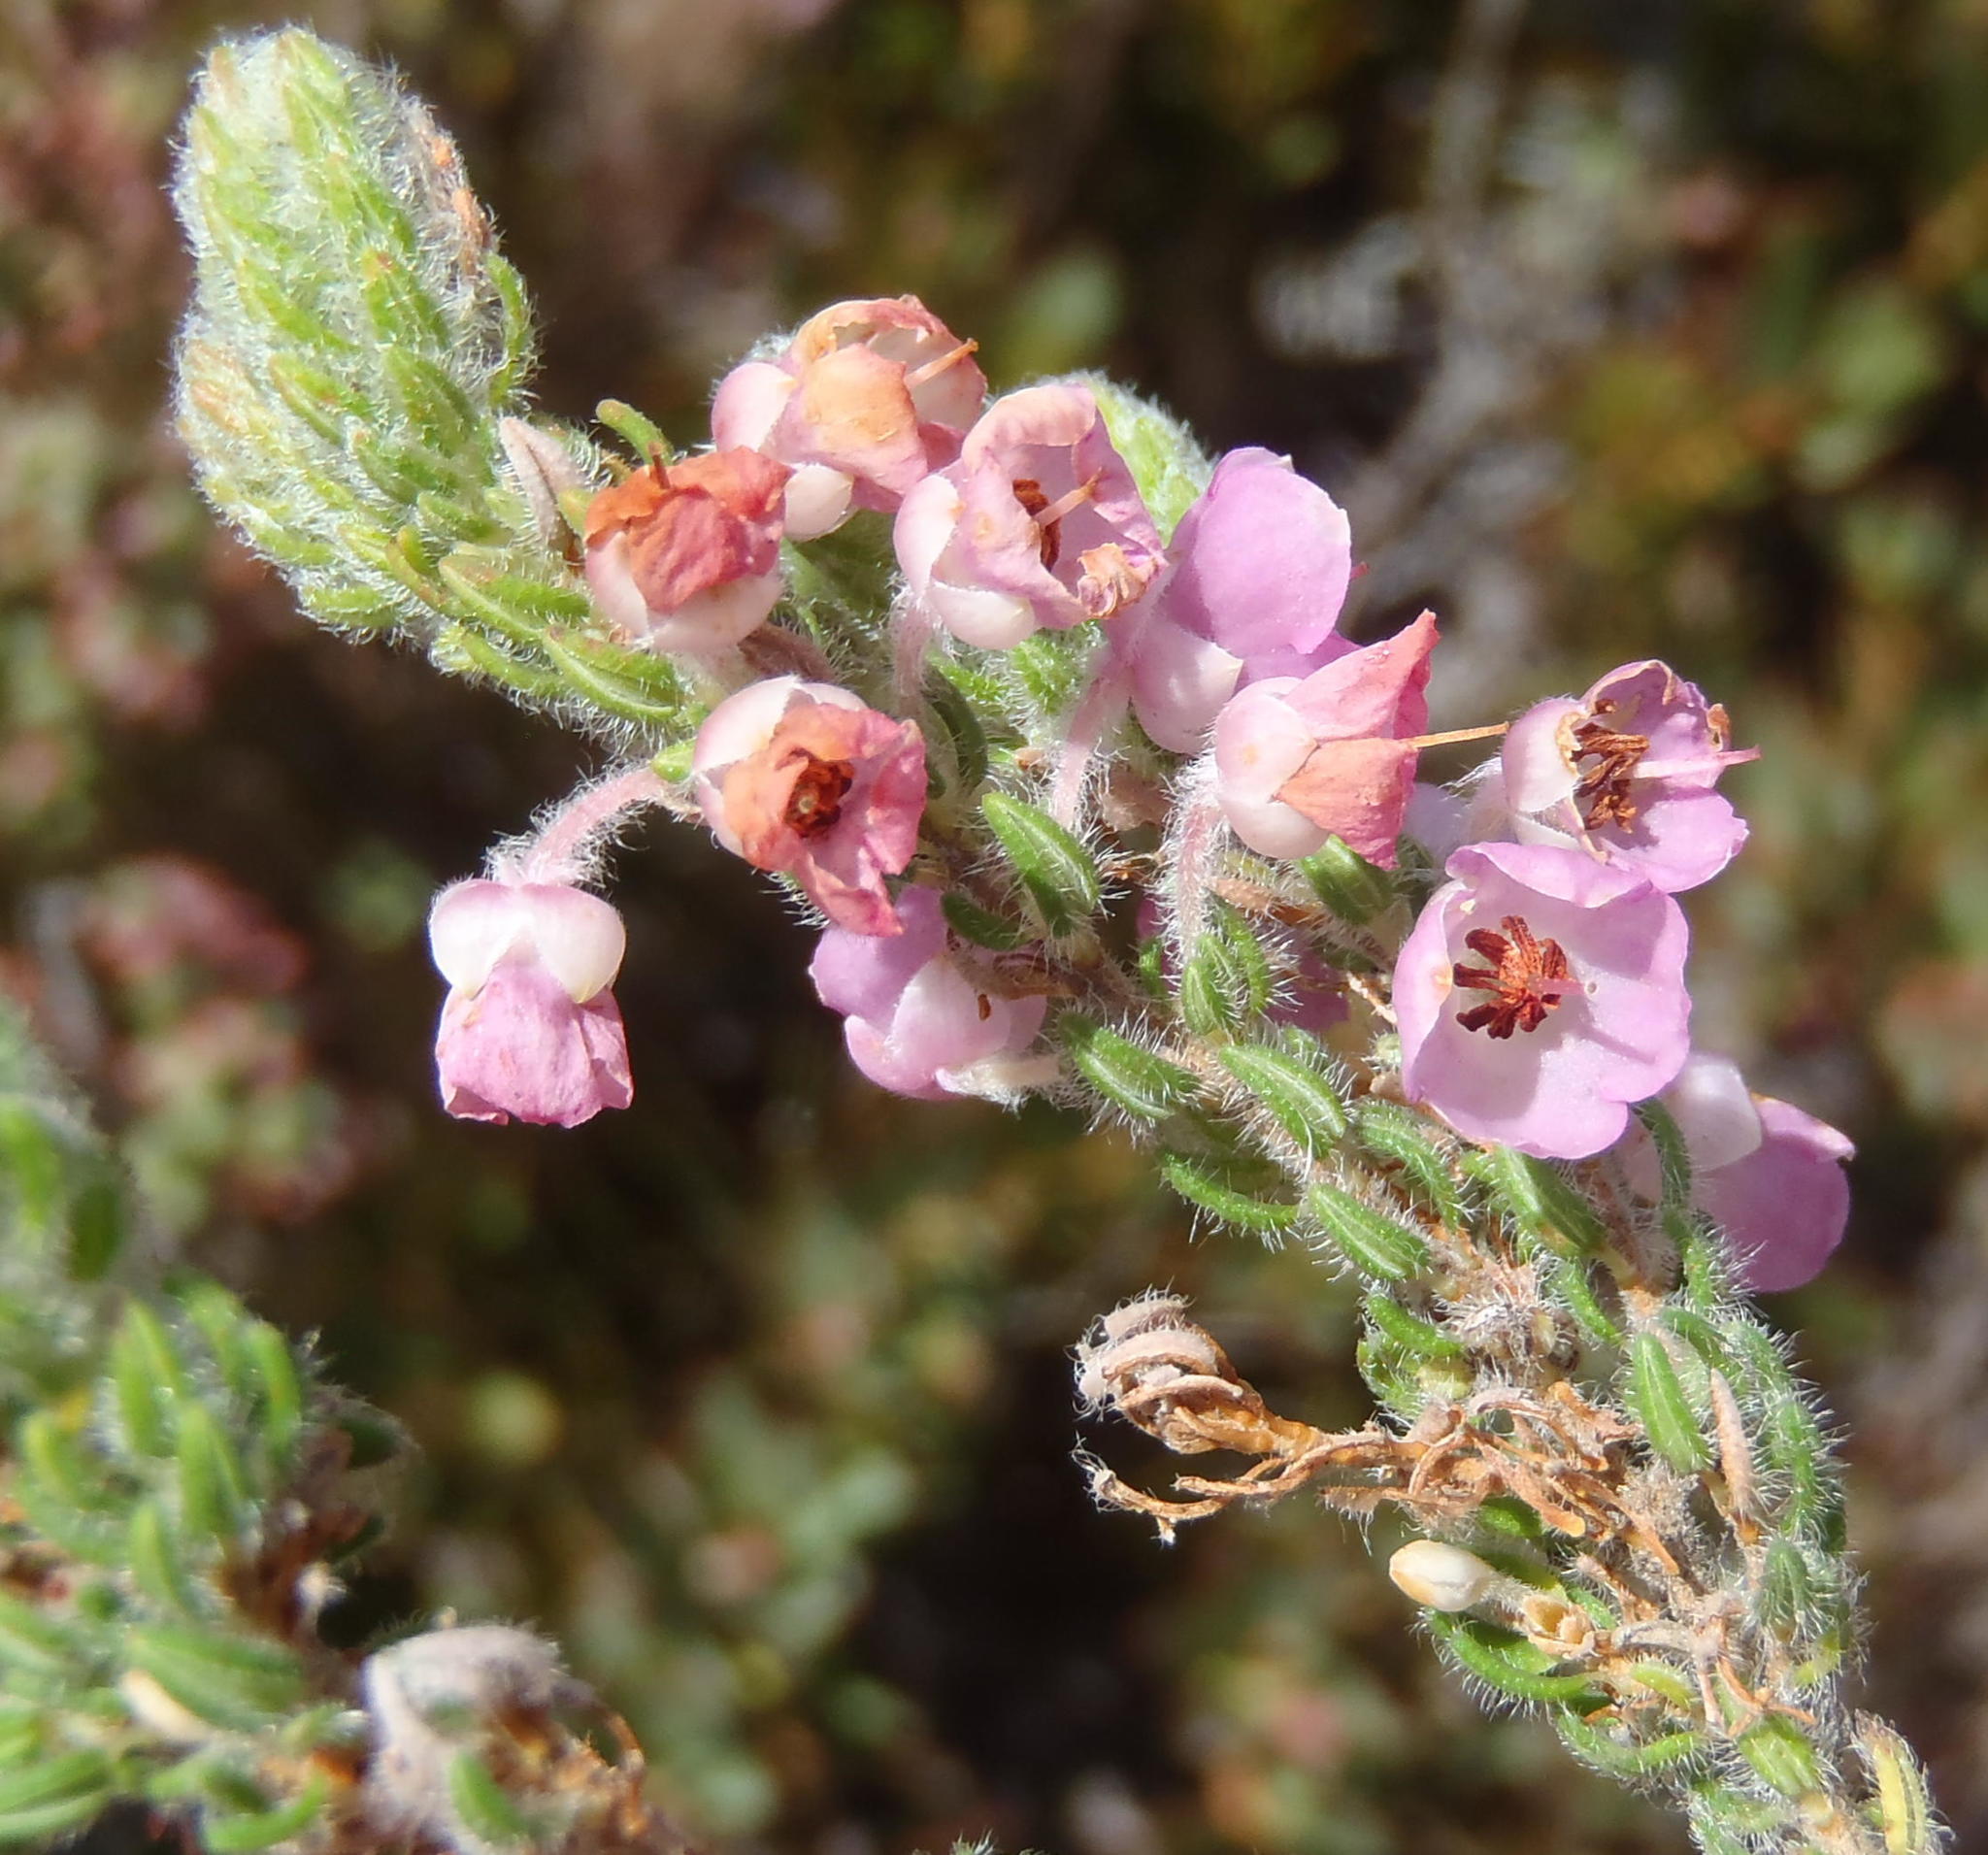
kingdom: Plantae
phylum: Tracheophyta
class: Magnoliopsida
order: Ericales
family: Ericaceae
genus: Erica
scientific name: Erica nervata
